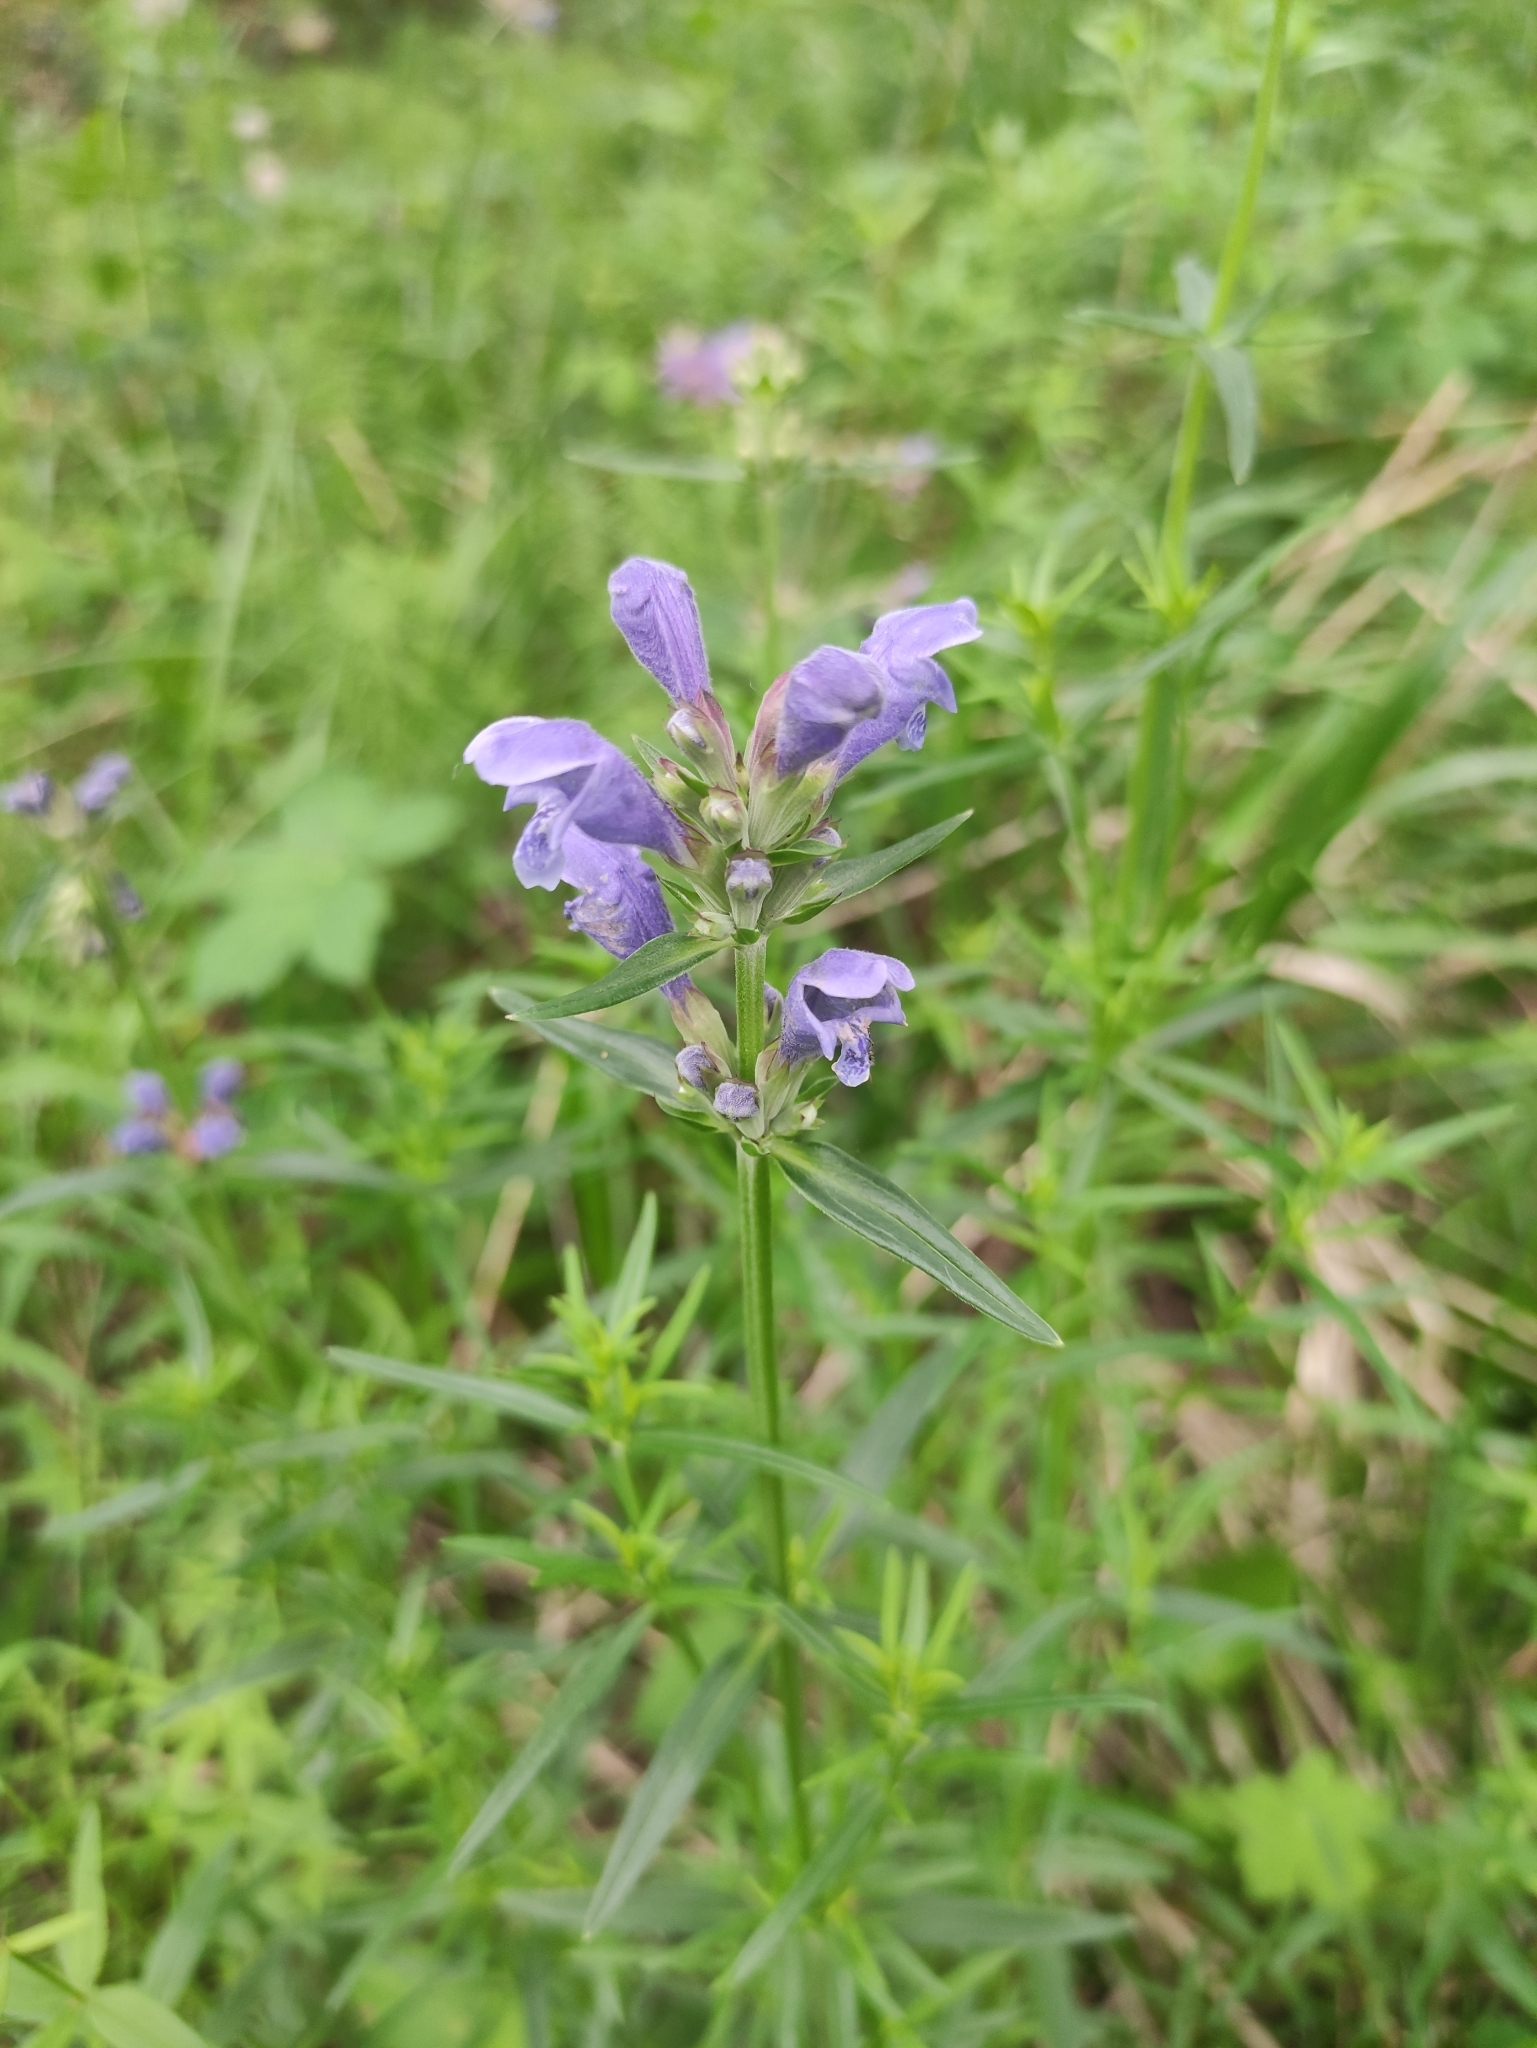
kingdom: Plantae
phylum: Tracheophyta
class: Magnoliopsida
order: Lamiales
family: Lamiaceae
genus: Dracocephalum
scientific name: Dracocephalum ruyschiana
